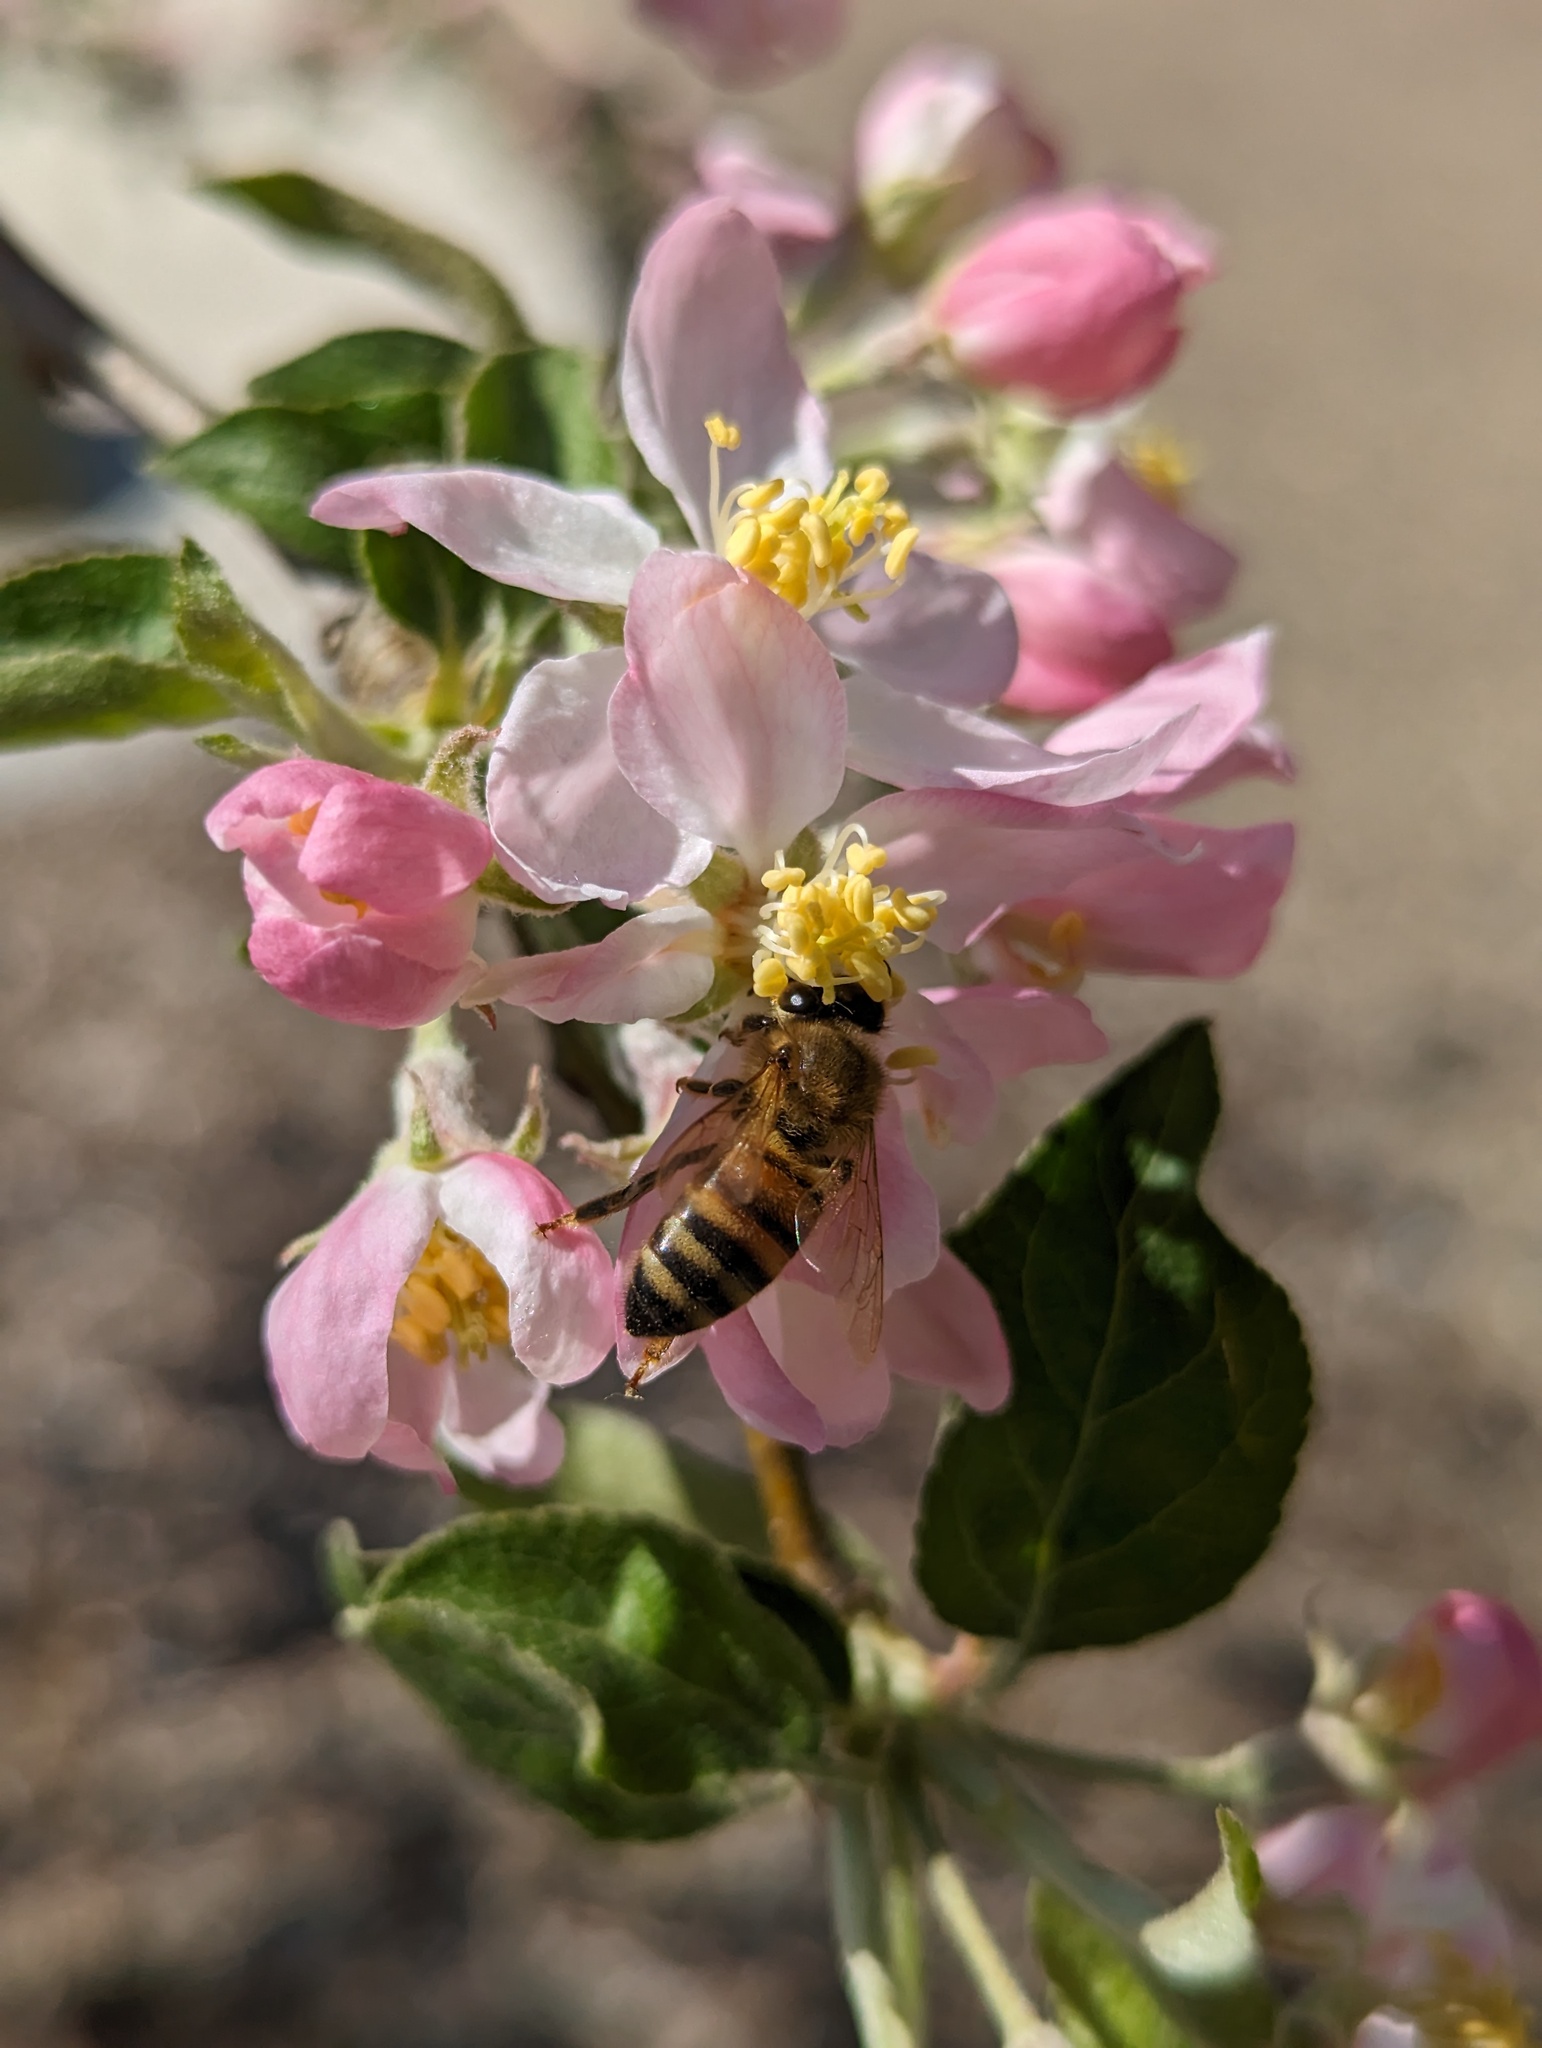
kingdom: Animalia
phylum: Arthropoda
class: Insecta
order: Hymenoptera
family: Apidae
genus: Apis
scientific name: Apis mellifera
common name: Honey bee
